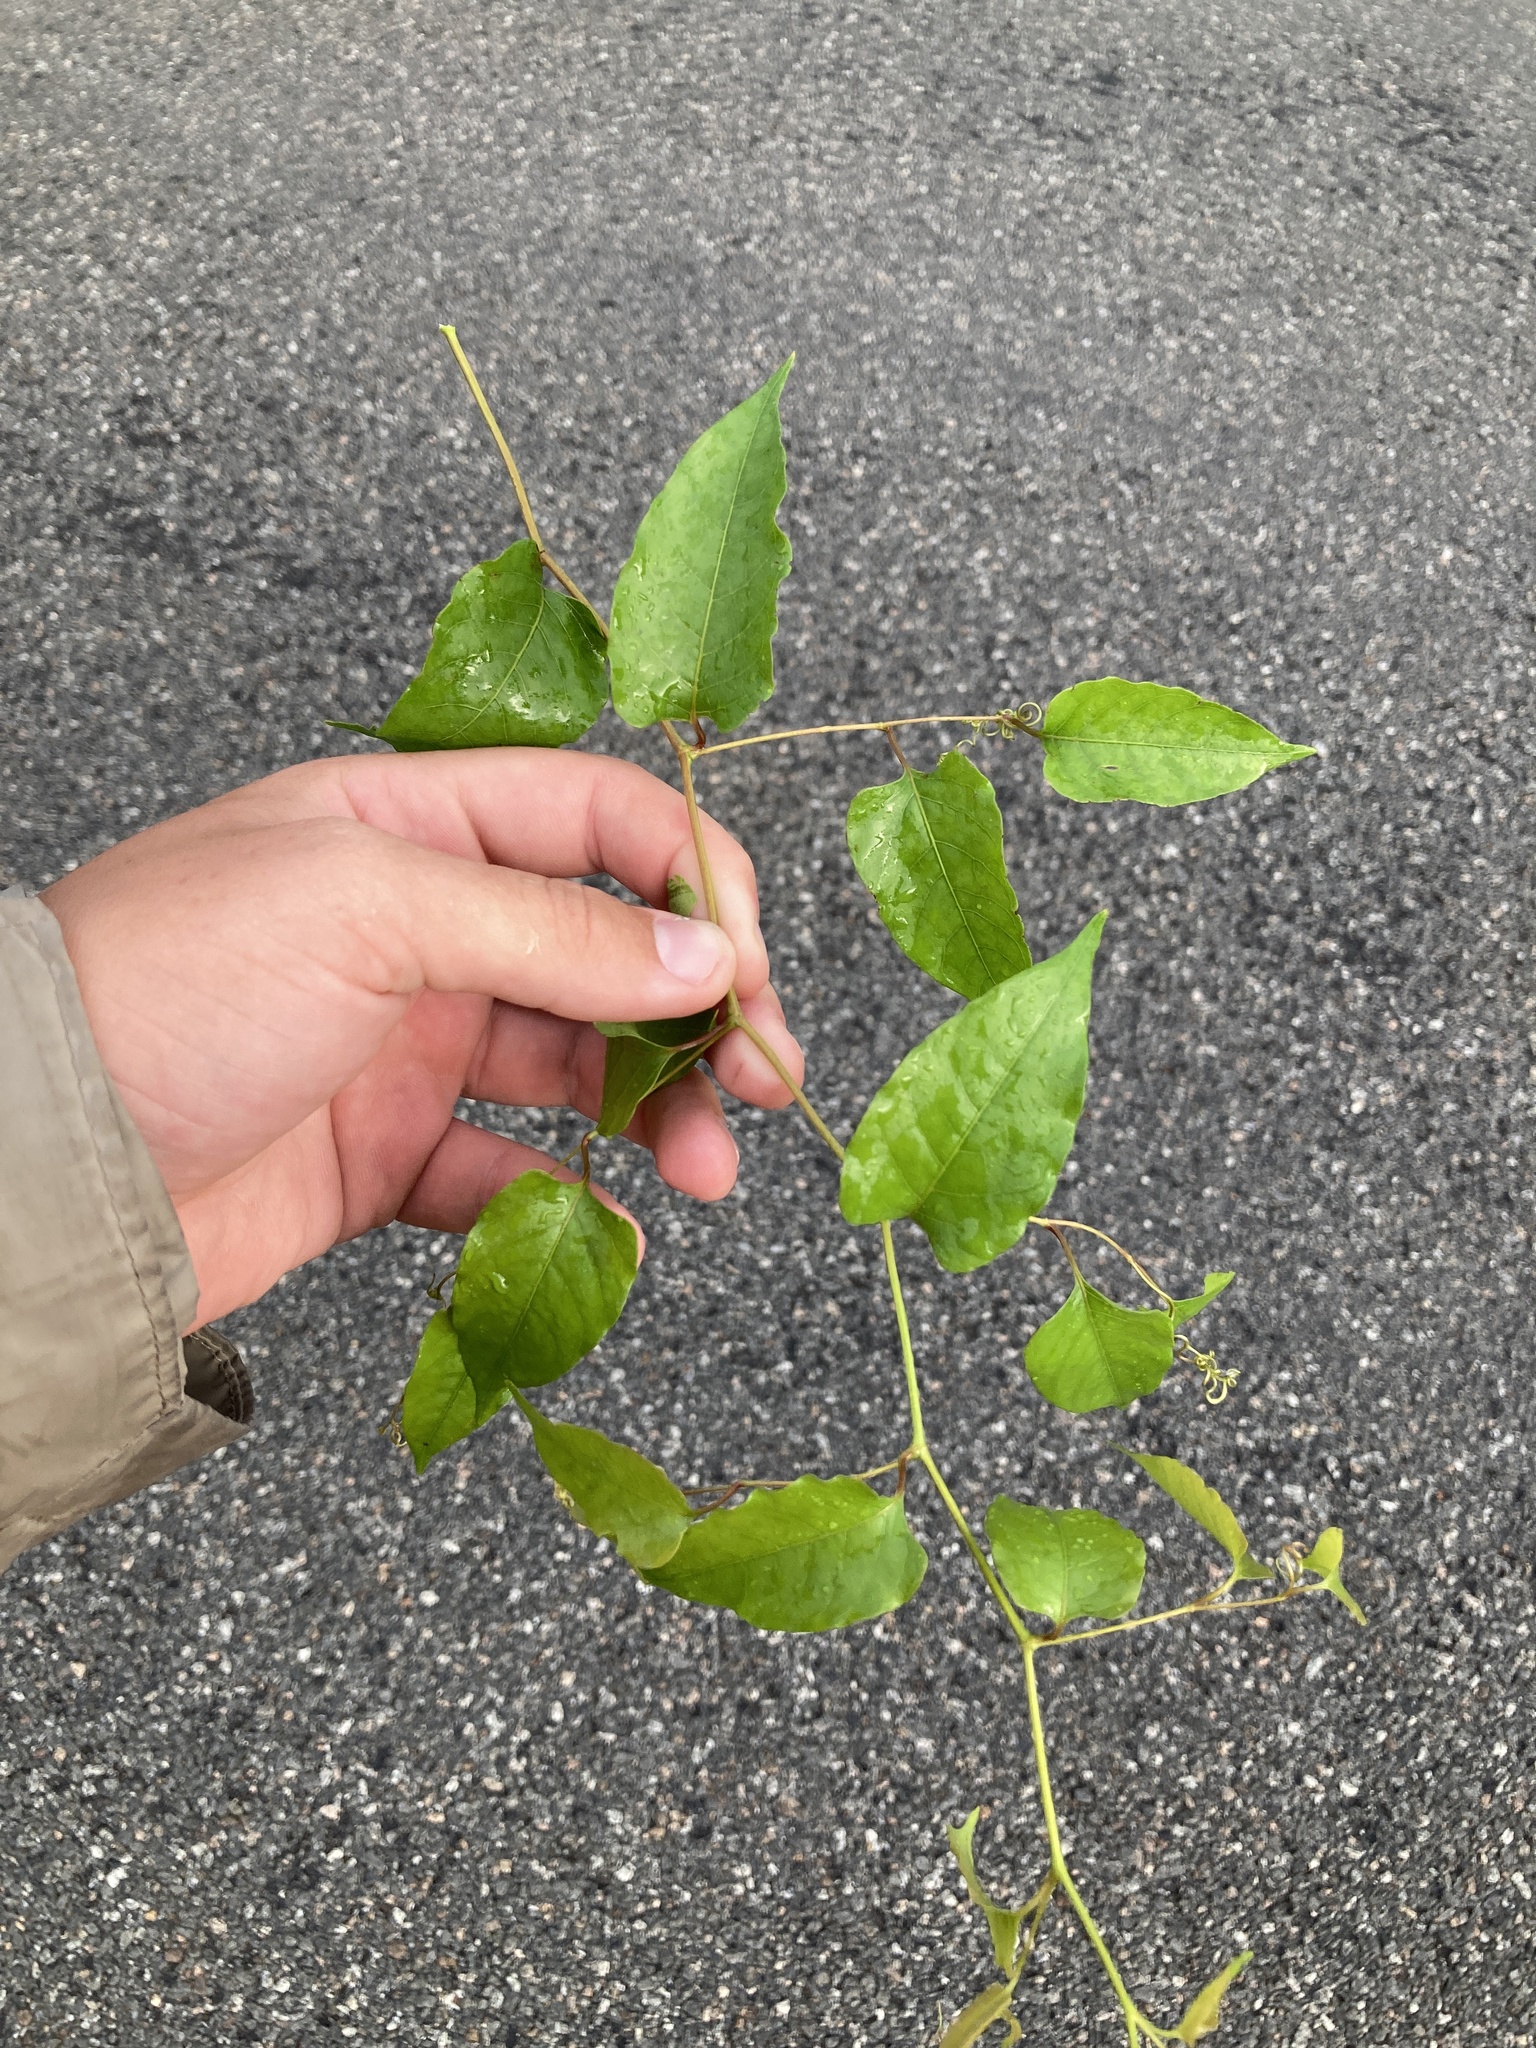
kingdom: Plantae
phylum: Tracheophyta
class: Magnoliopsida
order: Caryophyllales
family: Polygonaceae
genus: Brunnichia
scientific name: Brunnichia ovata
